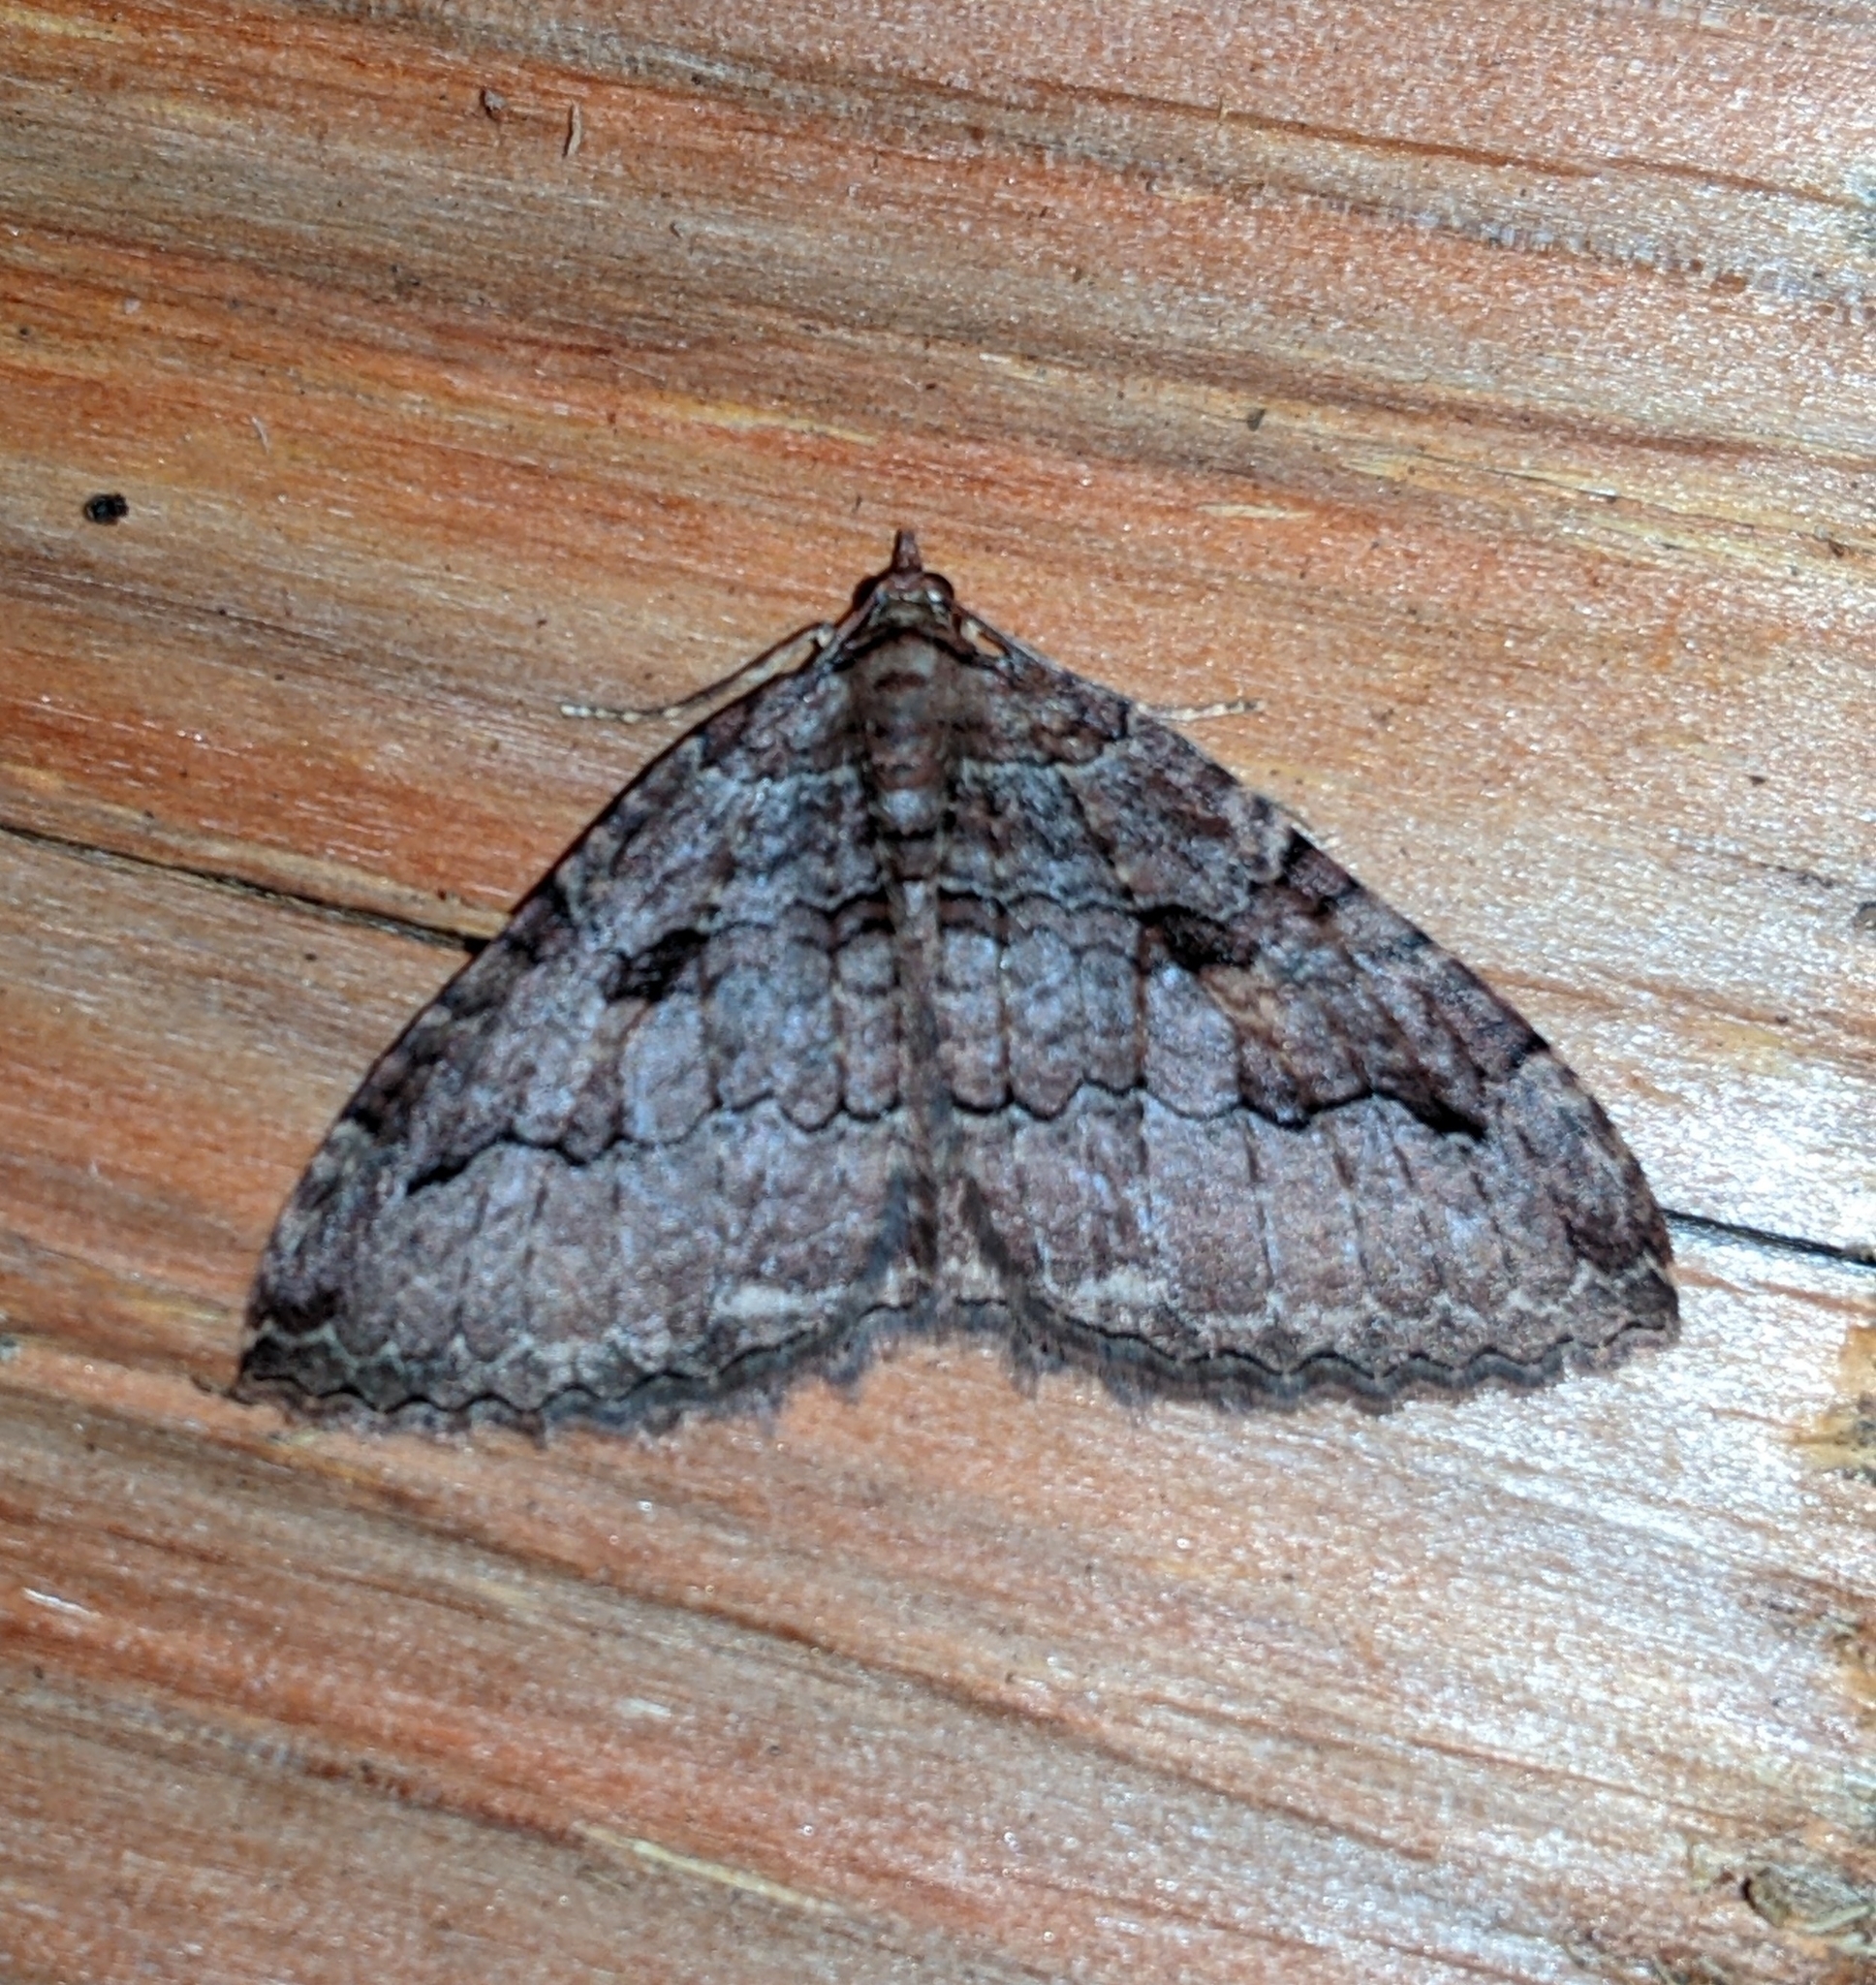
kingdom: Animalia
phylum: Arthropoda
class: Insecta
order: Lepidoptera
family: Geometridae
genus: Triphosa
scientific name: Triphosa haesitata
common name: Tissue moth
